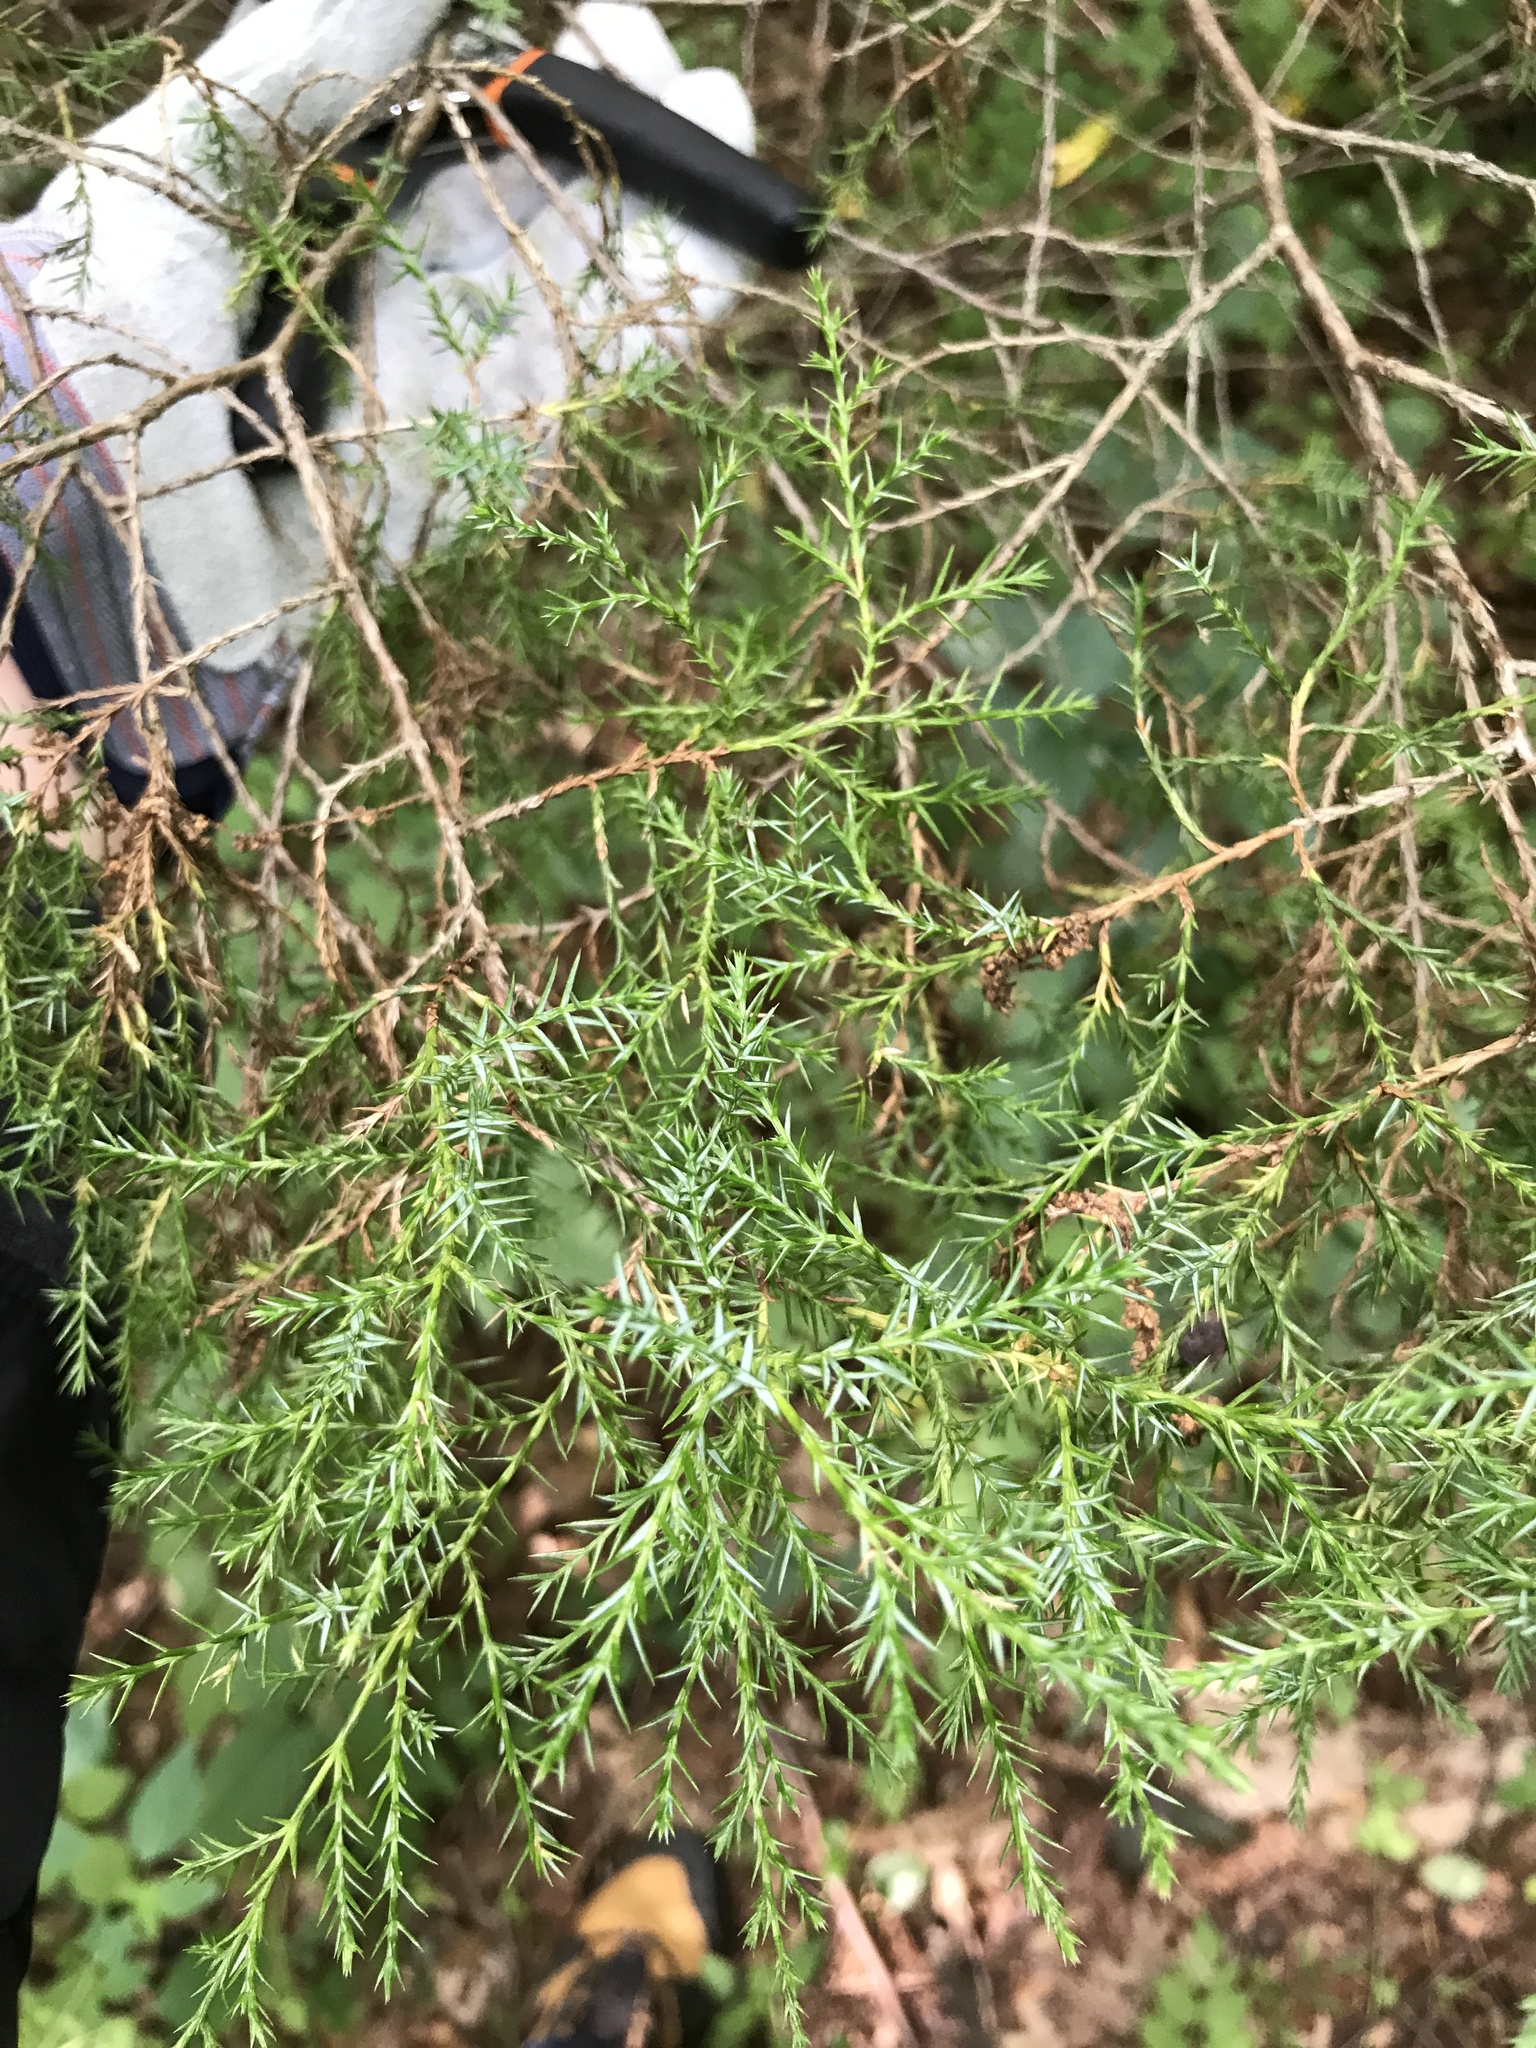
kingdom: Plantae
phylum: Tracheophyta
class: Pinopsida
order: Pinales
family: Cupressaceae
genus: Juniperus
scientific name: Juniperus virginiana
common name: Red juniper
